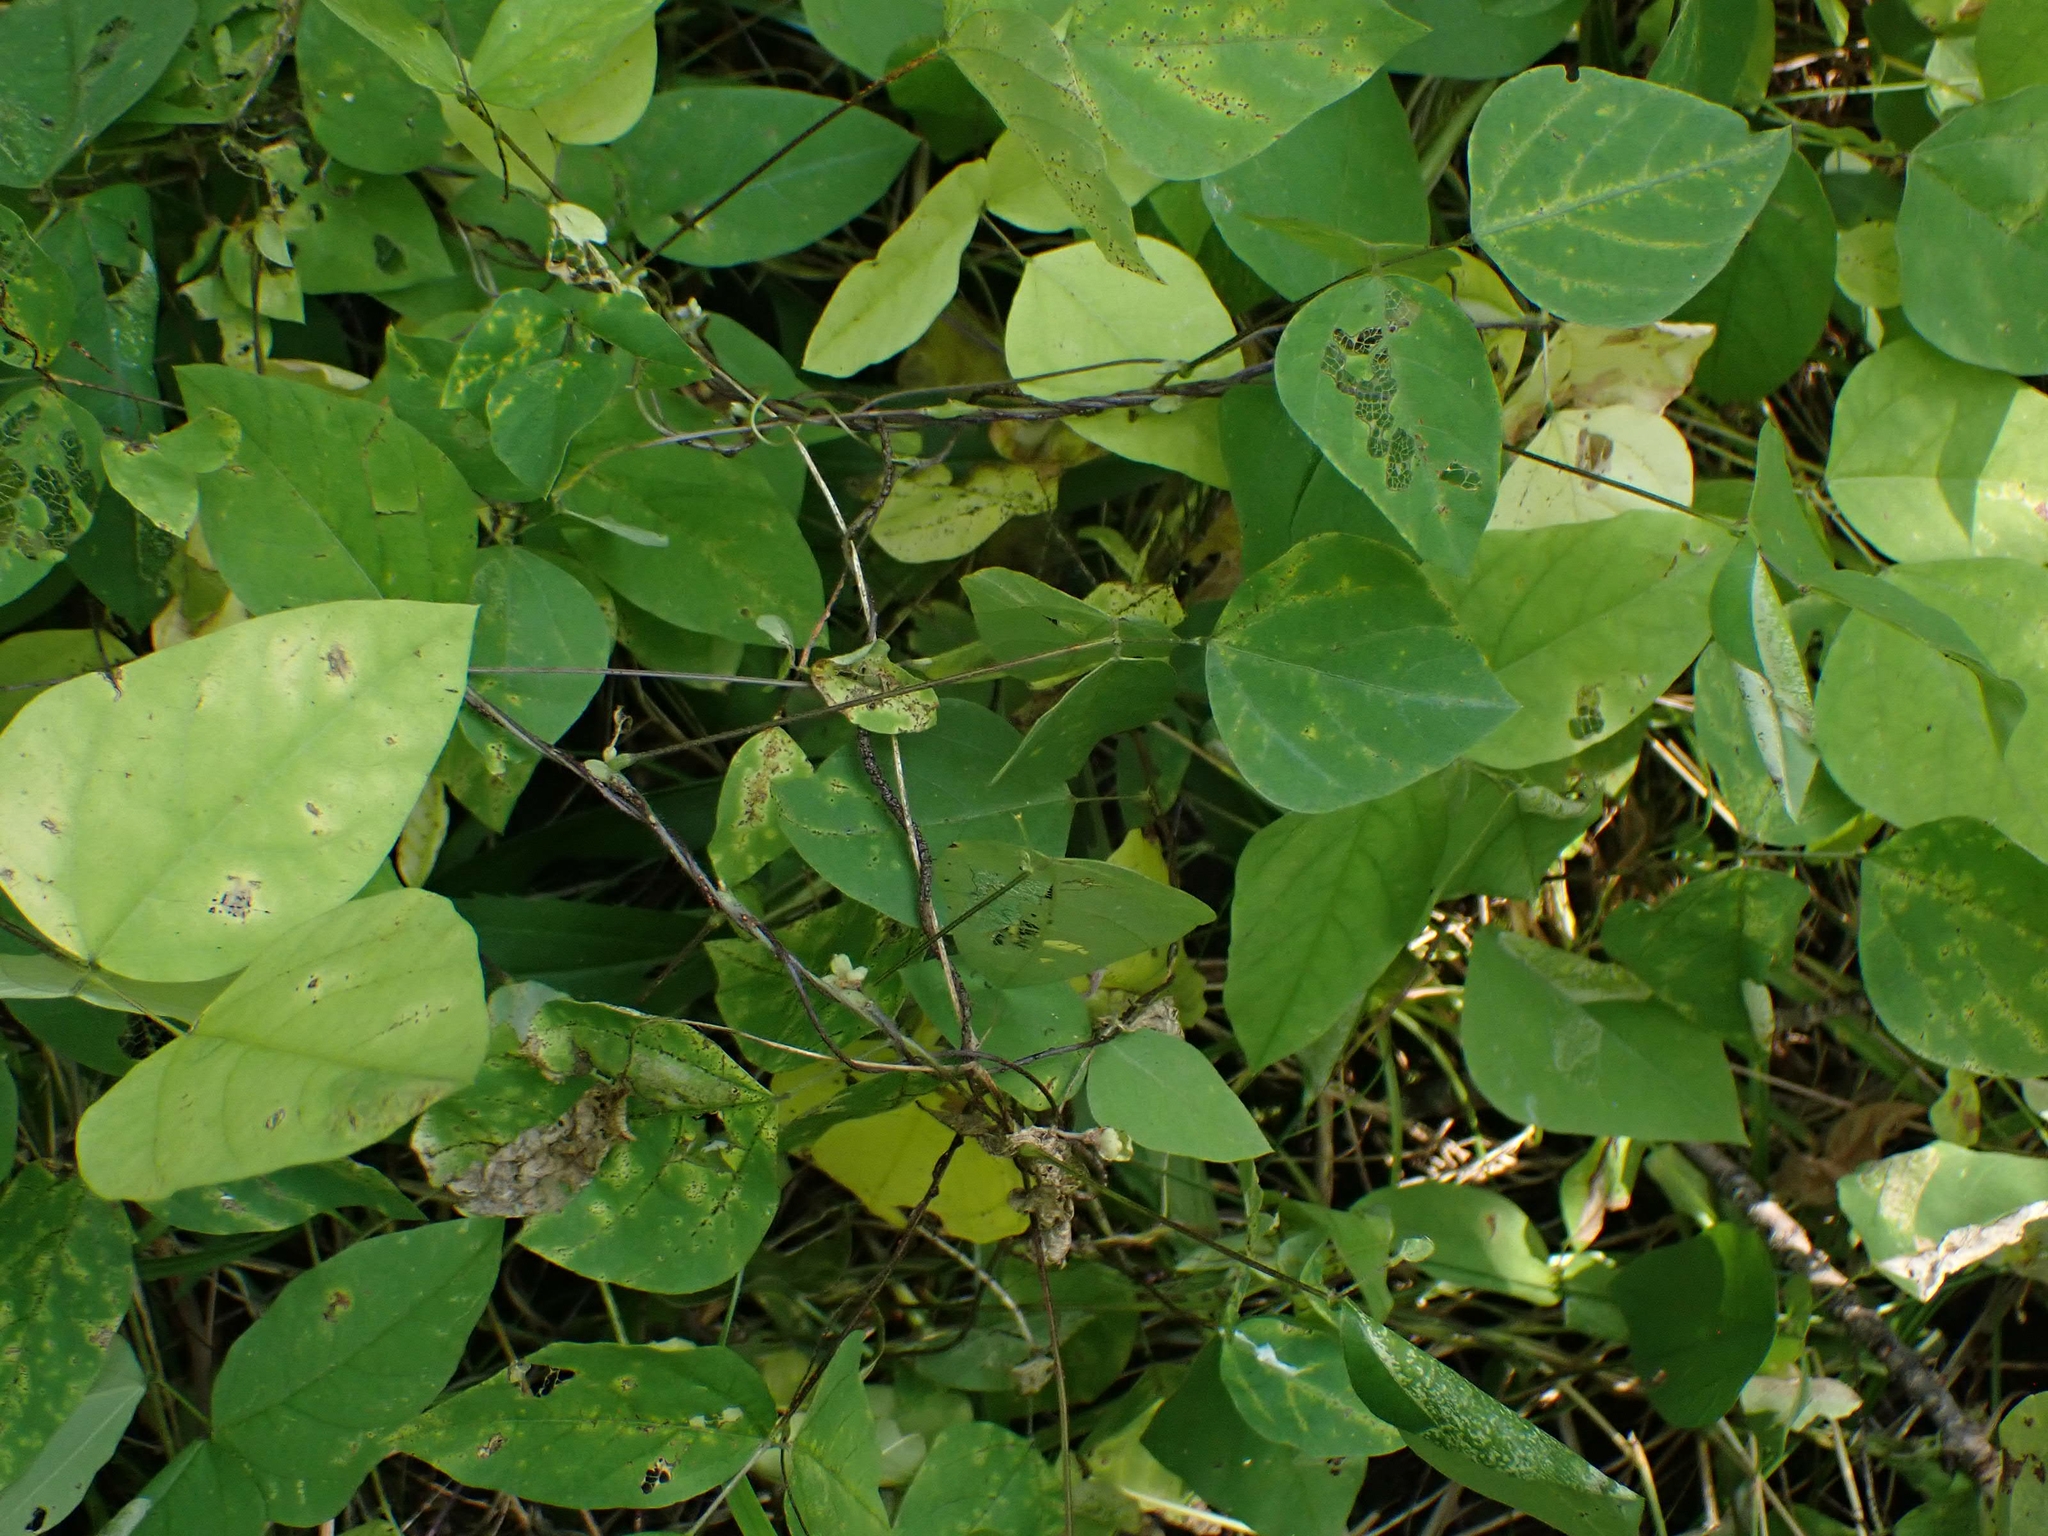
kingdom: Plantae
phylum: Tracheophyta
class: Magnoliopsida
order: Fabales
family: Fabaceae
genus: Amphicarpaea
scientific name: Amphicarpaea bracteata
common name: American hog peanut
